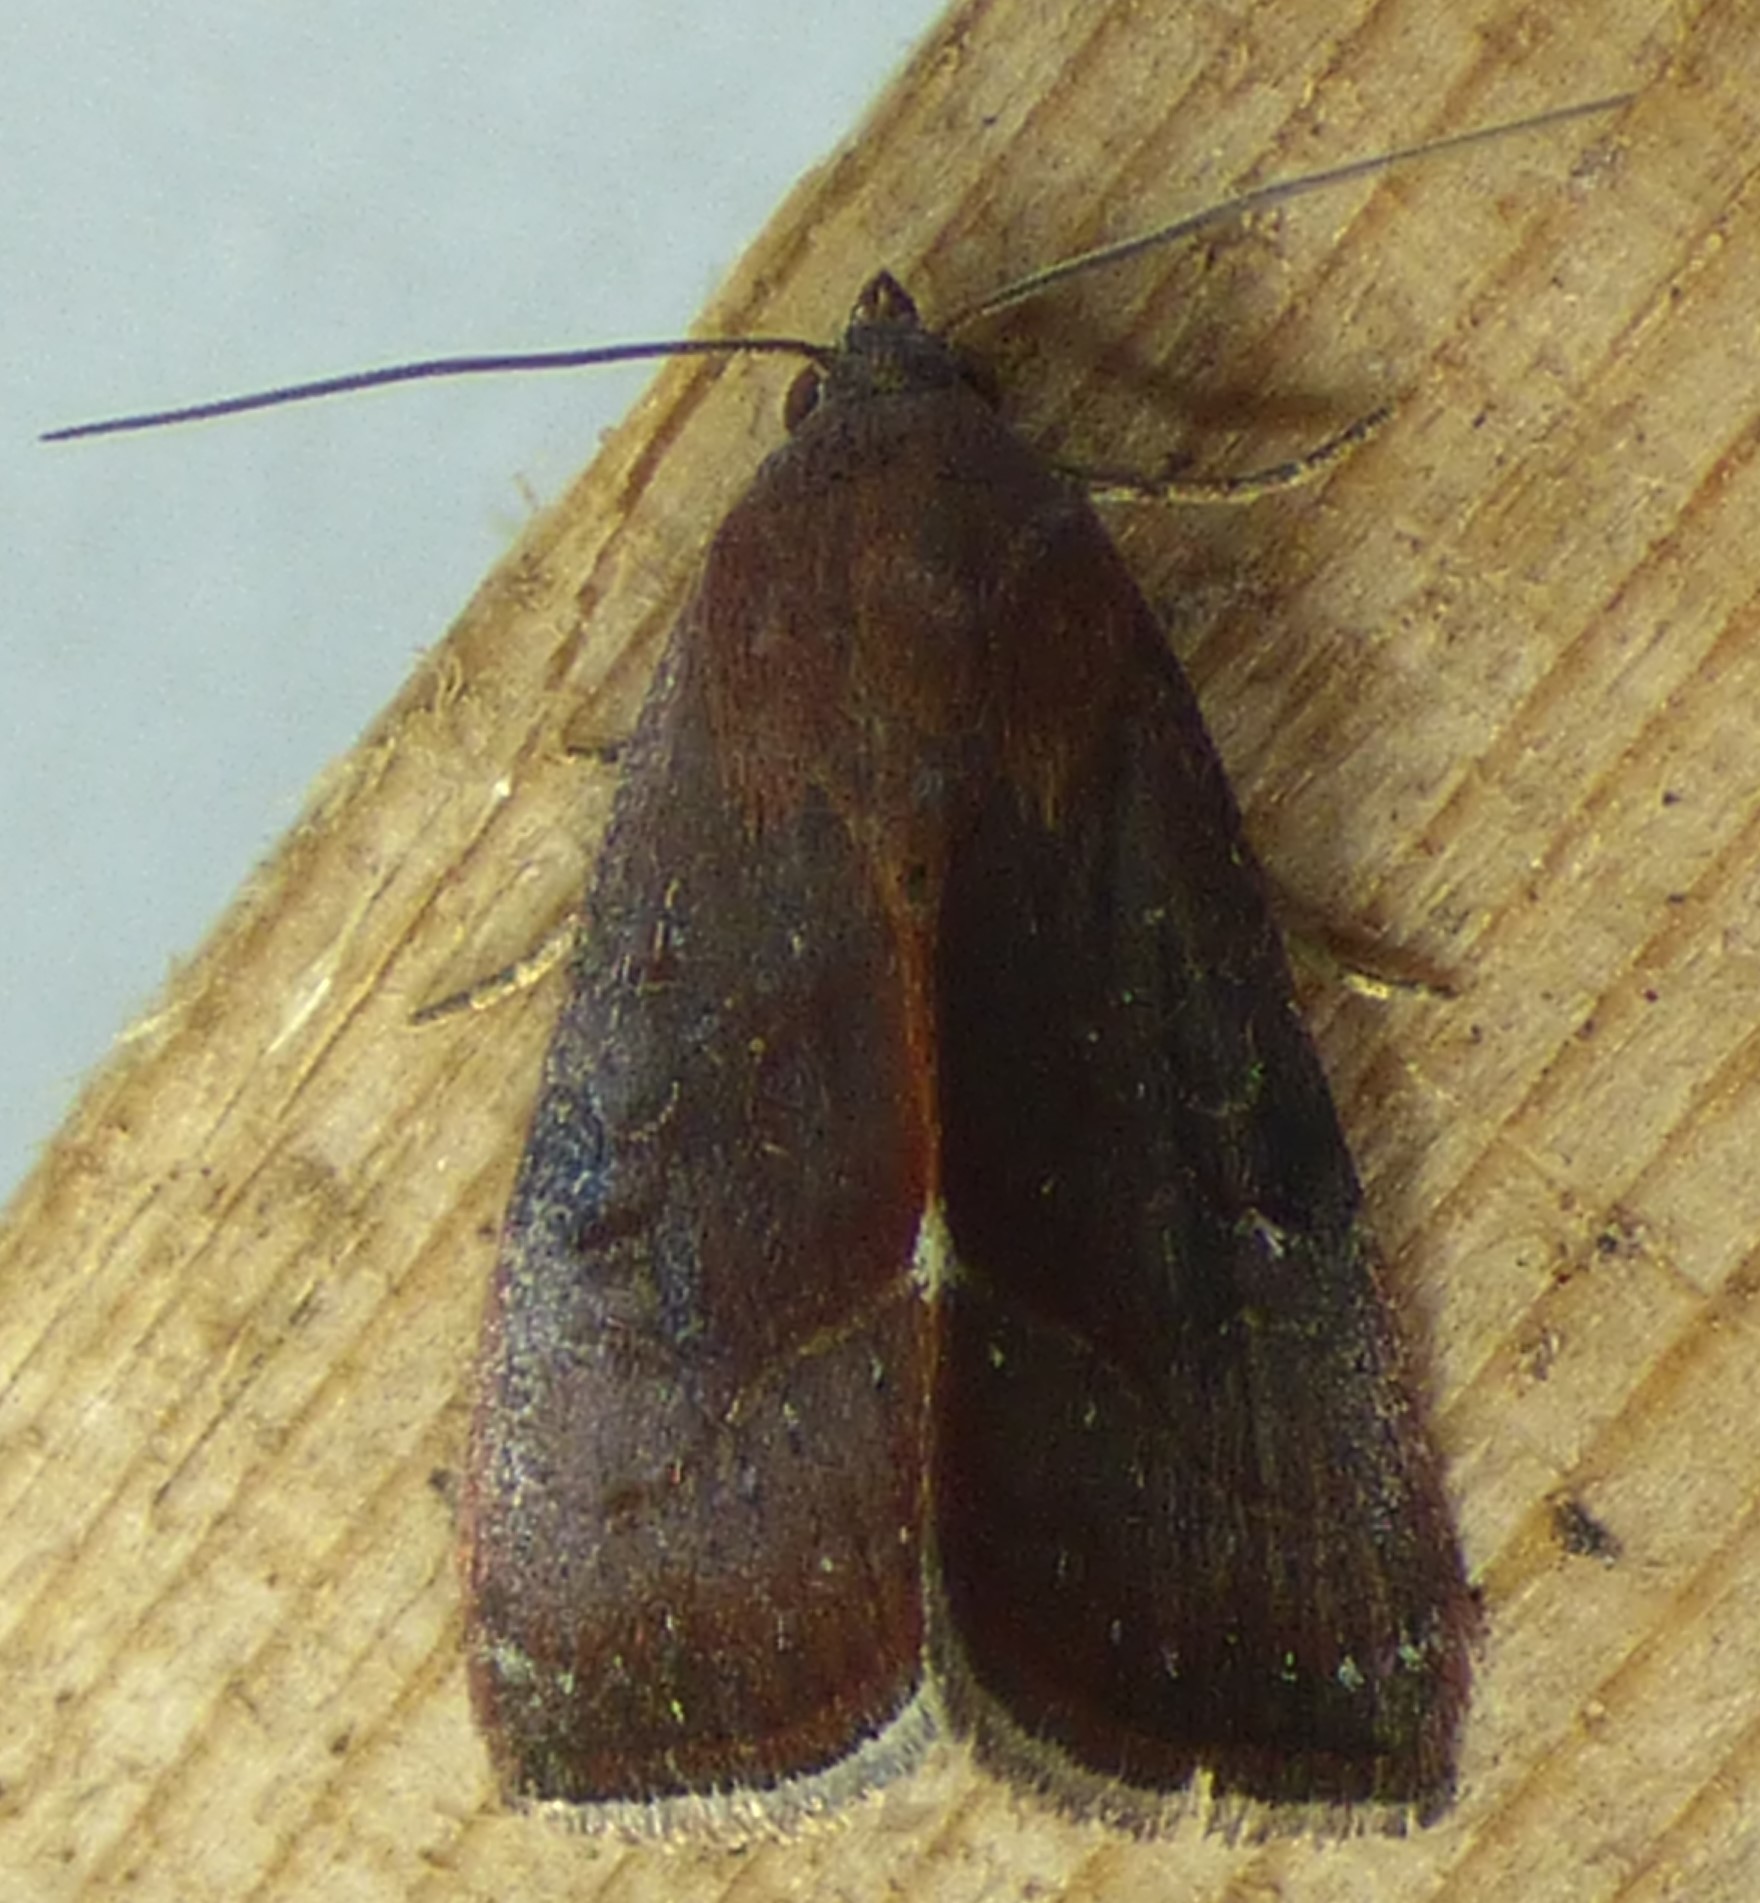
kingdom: Animalia
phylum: Arthropoda
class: Insecta
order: Lepidoptera
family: Noctuidae
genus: Galgula
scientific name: Galgula partita
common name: Wedgeling
